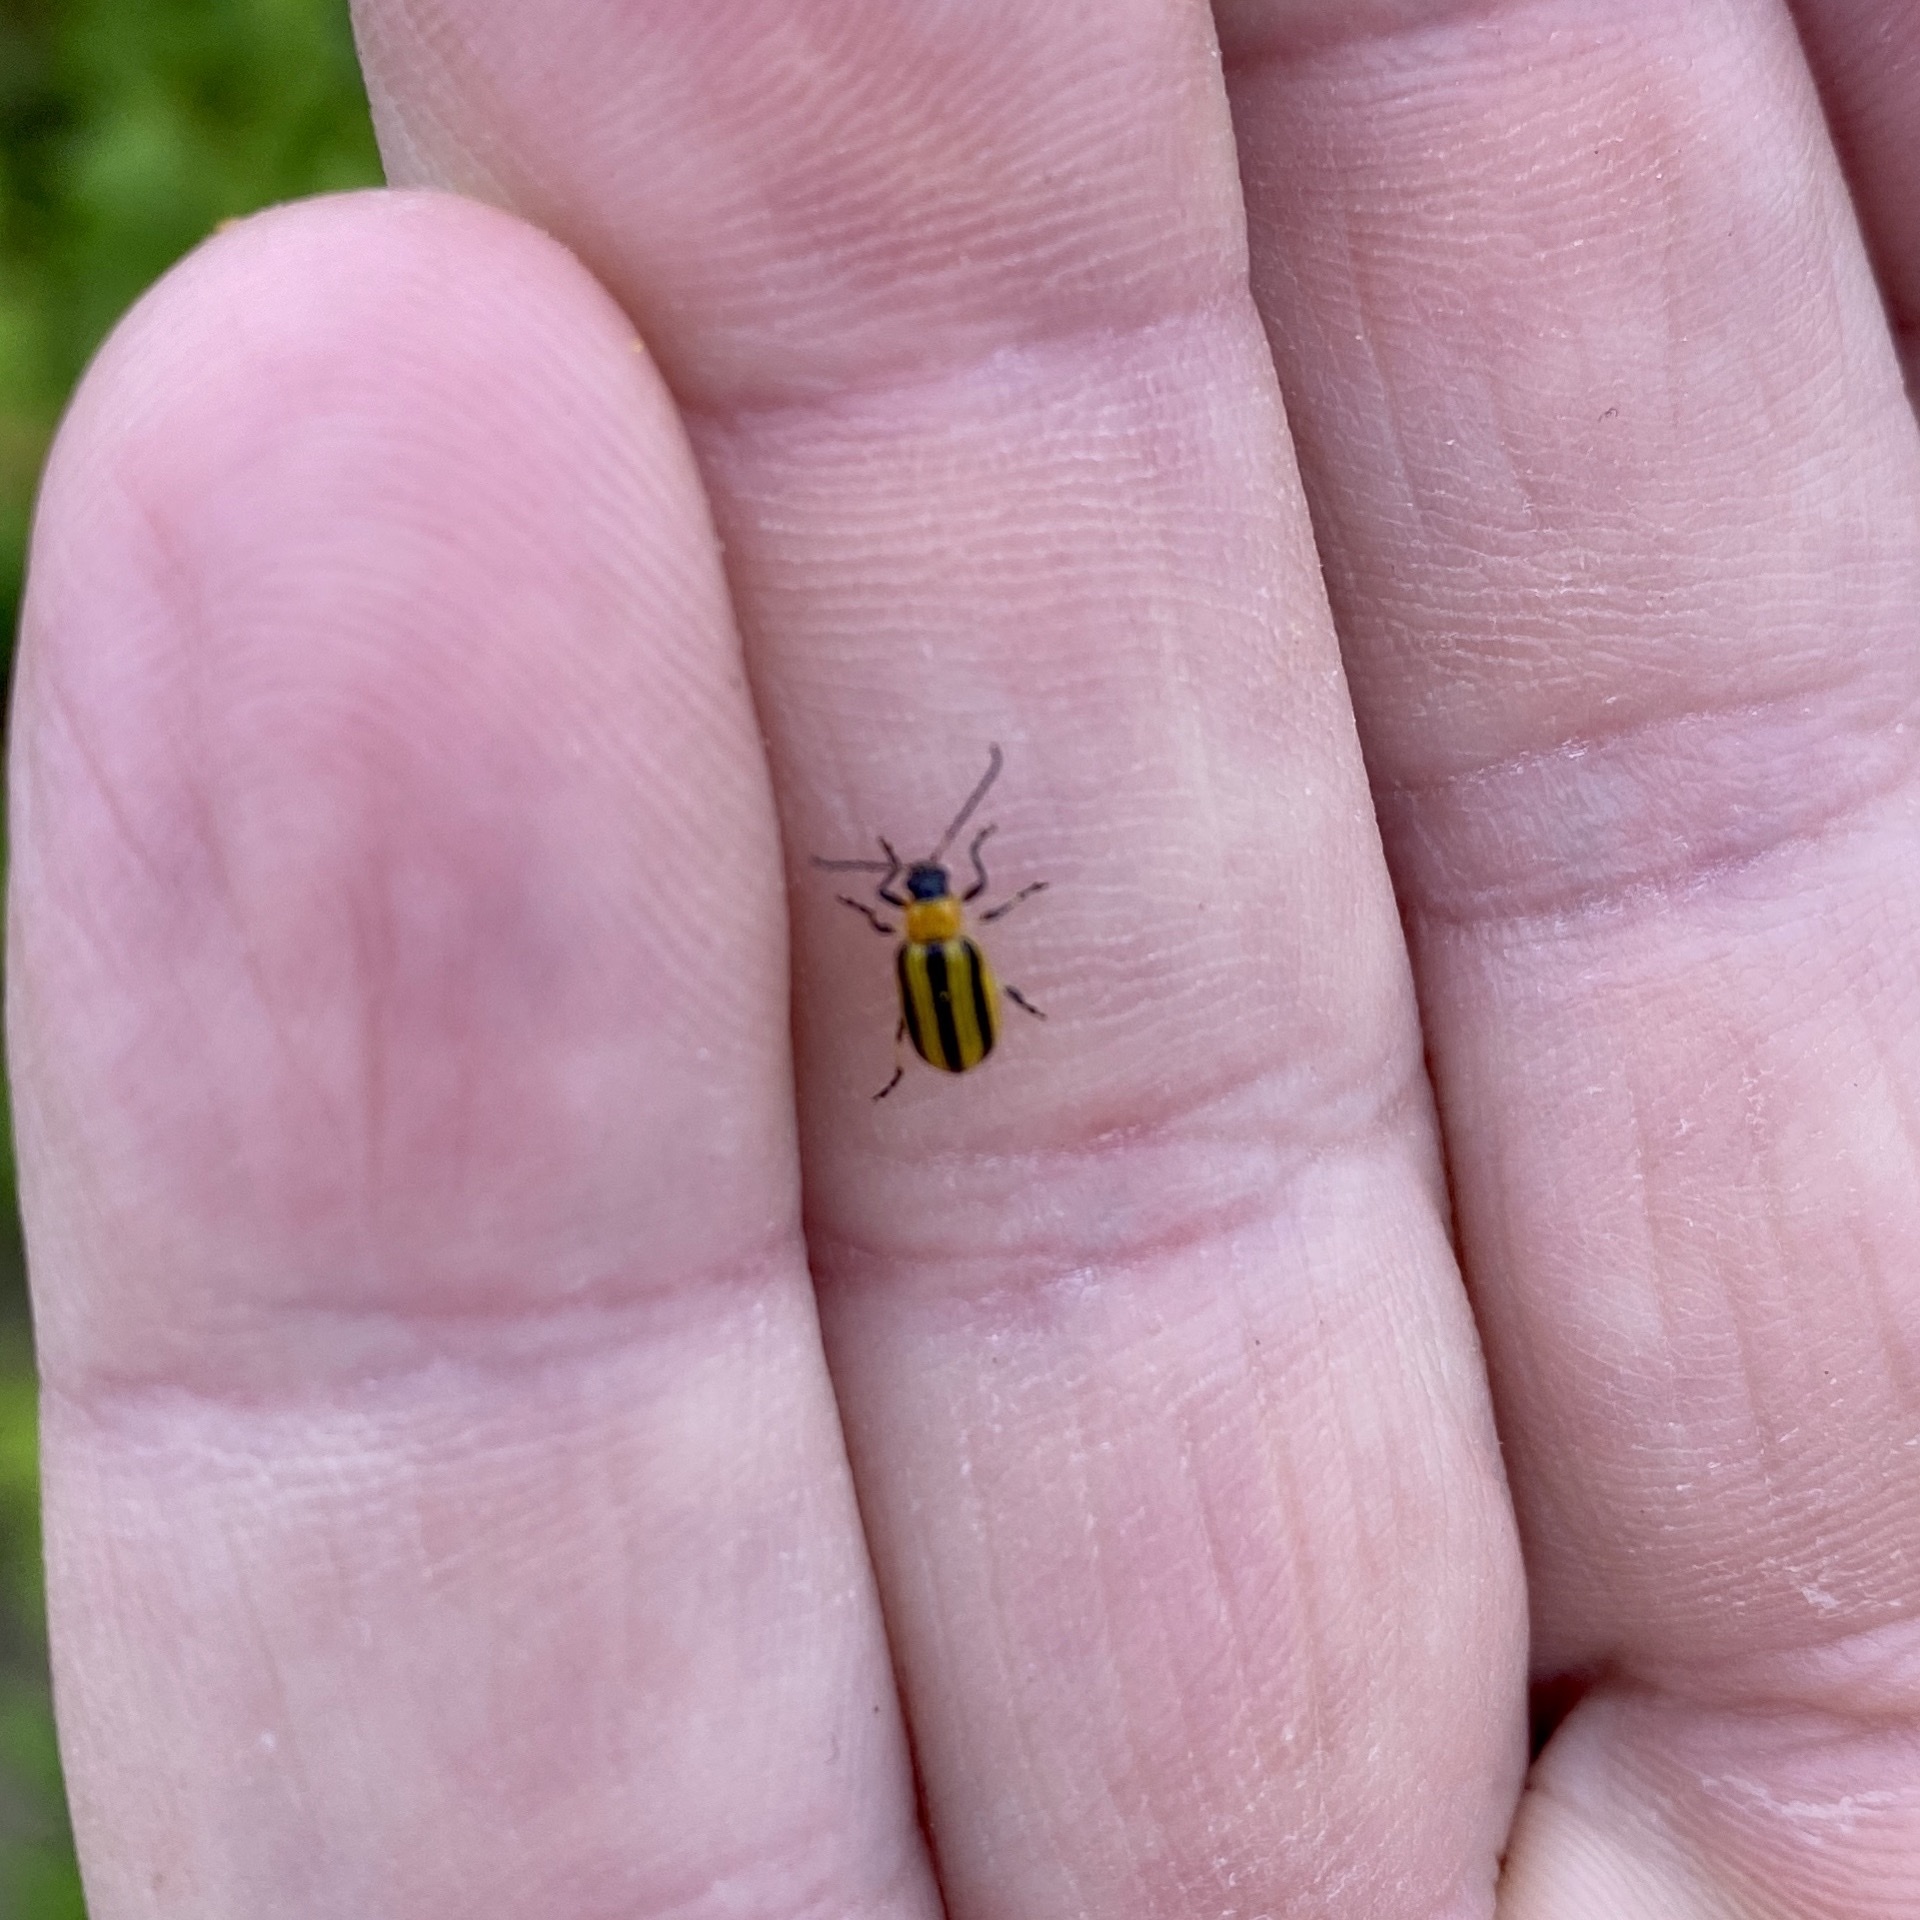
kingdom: Animalia
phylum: Arthropoda
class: Insecta
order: Coleoptera
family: Chrysomelidae
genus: Acalymma
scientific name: Acalymma vittatum
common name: Striped cucumber beetle
